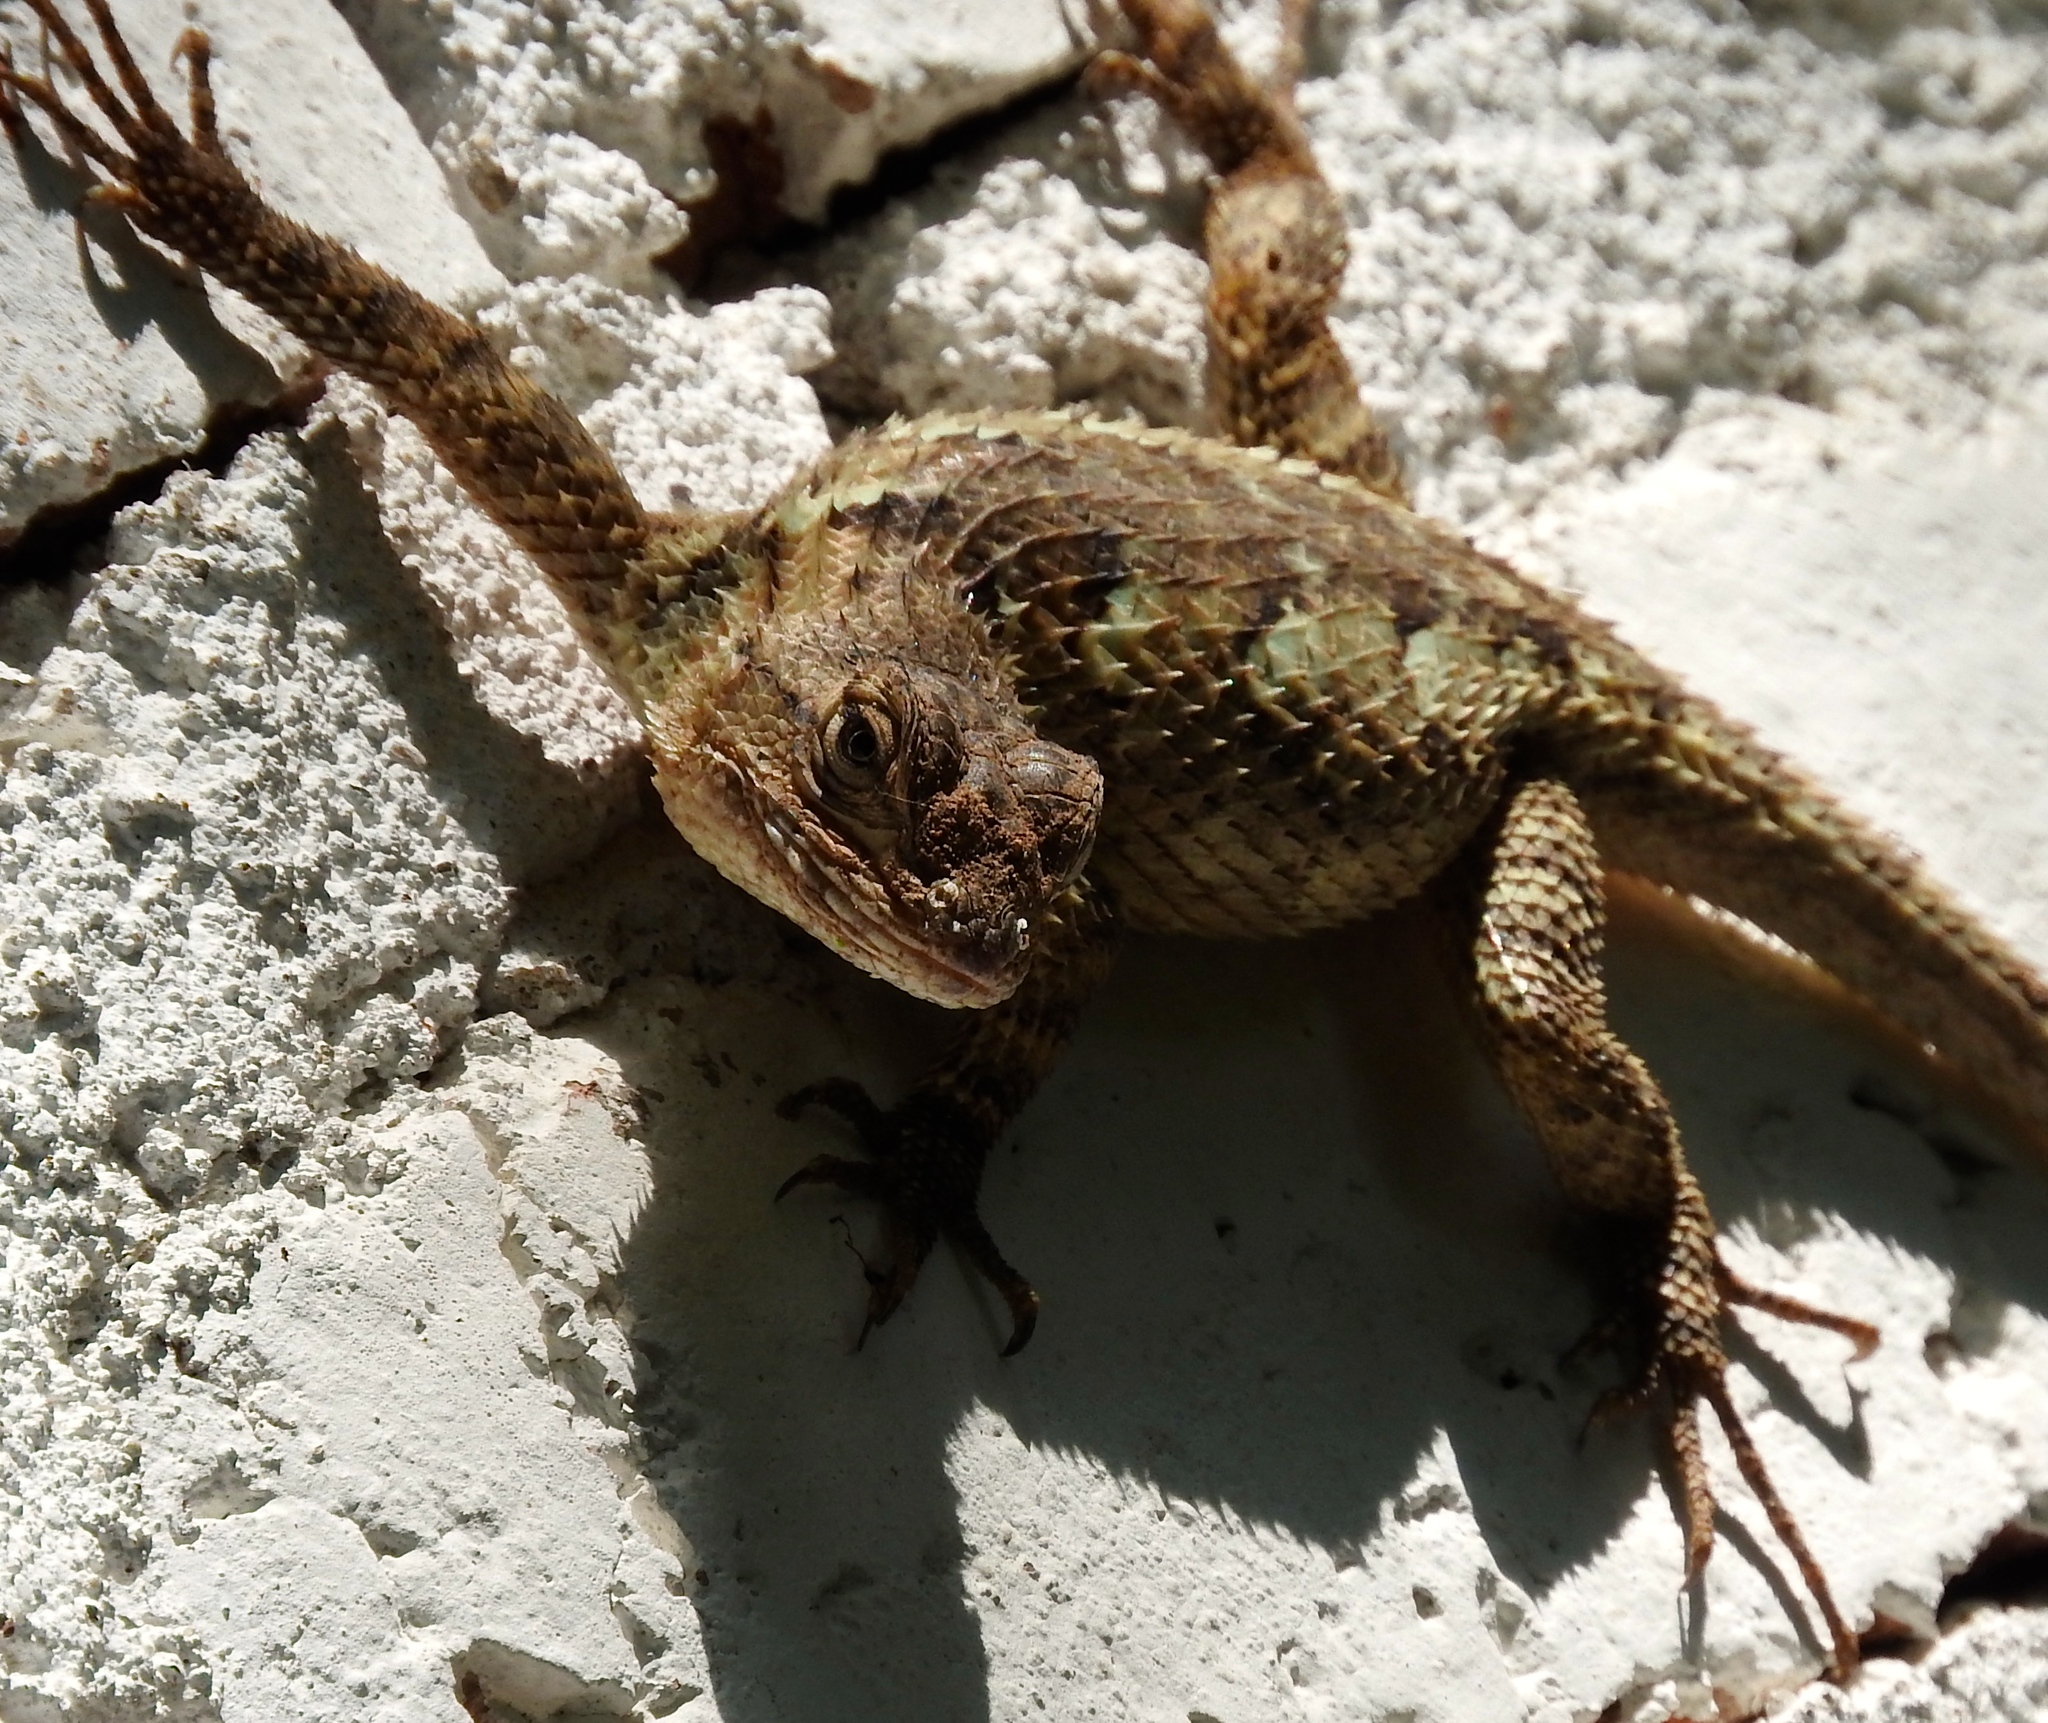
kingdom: Animalia
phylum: Chordata
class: Squamata
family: Phrynosomatidae
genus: Sceloporus
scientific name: Sceloporus clarkii
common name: Clark's spiny lizard
